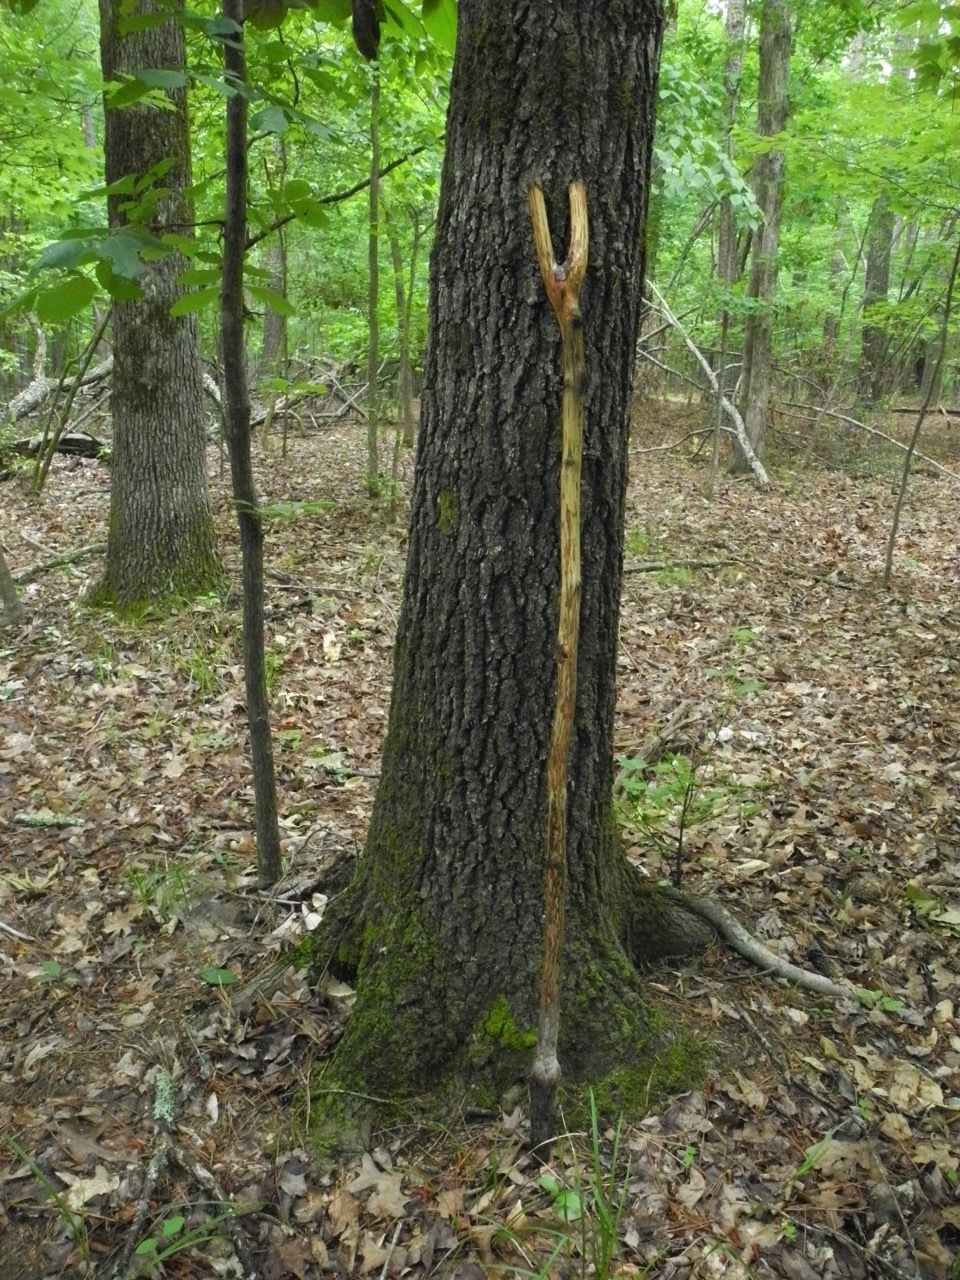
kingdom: Plantae
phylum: Tracheophyta
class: Magnoliopsida
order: Fagales
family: Fagaceae
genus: Quercus
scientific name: Quercus marilandica
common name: Blackjack oak
